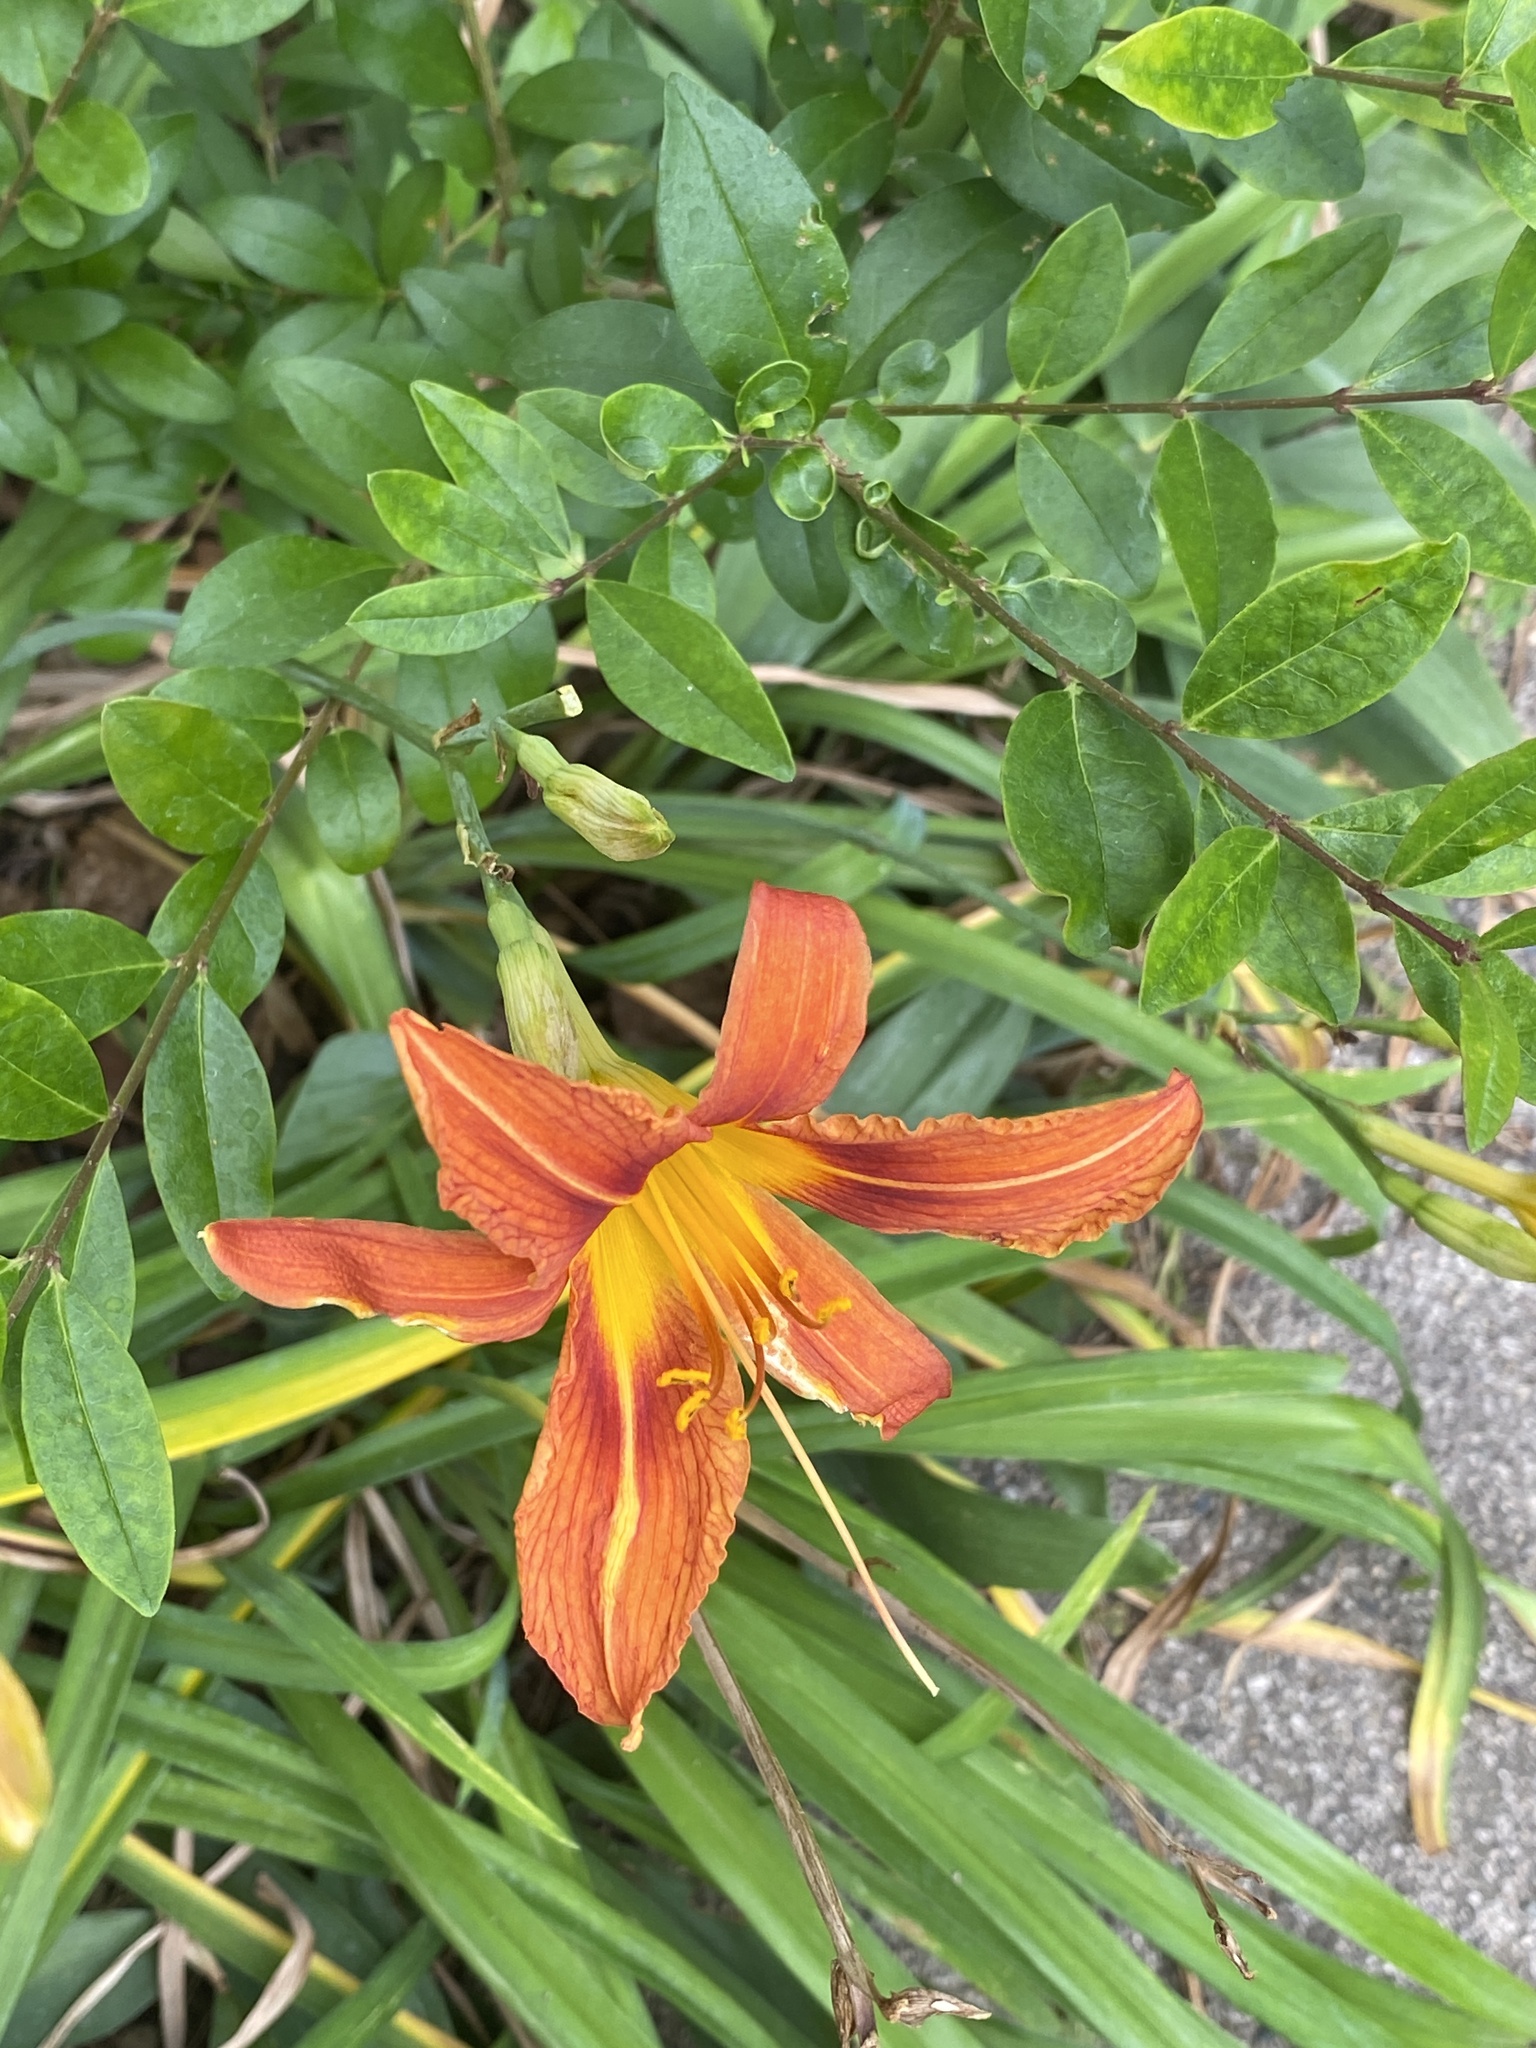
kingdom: Plantae
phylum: Tracheophyta
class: Liliopsida
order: Asparagales
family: Asphodelaceae
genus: Hemerocallis
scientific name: Hemerocallis fulva
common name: Orange day-lily
